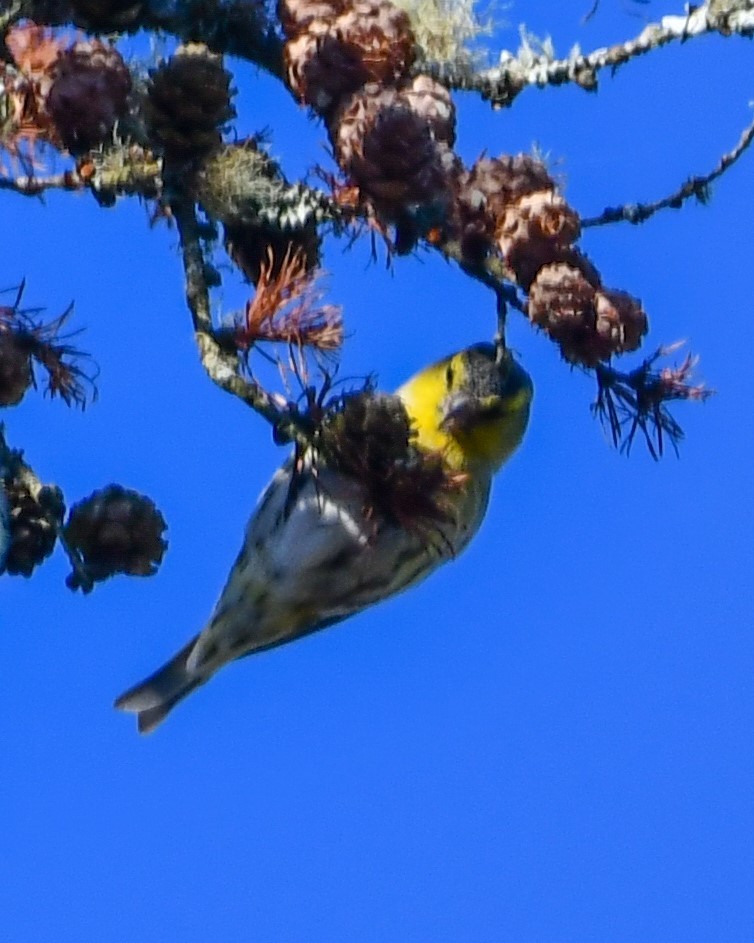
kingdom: Animalia
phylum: Chordata
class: Aves
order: Passeriformes
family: Fringillidae
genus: Spinus
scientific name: Spinus spinus
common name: Eurasian siskin
